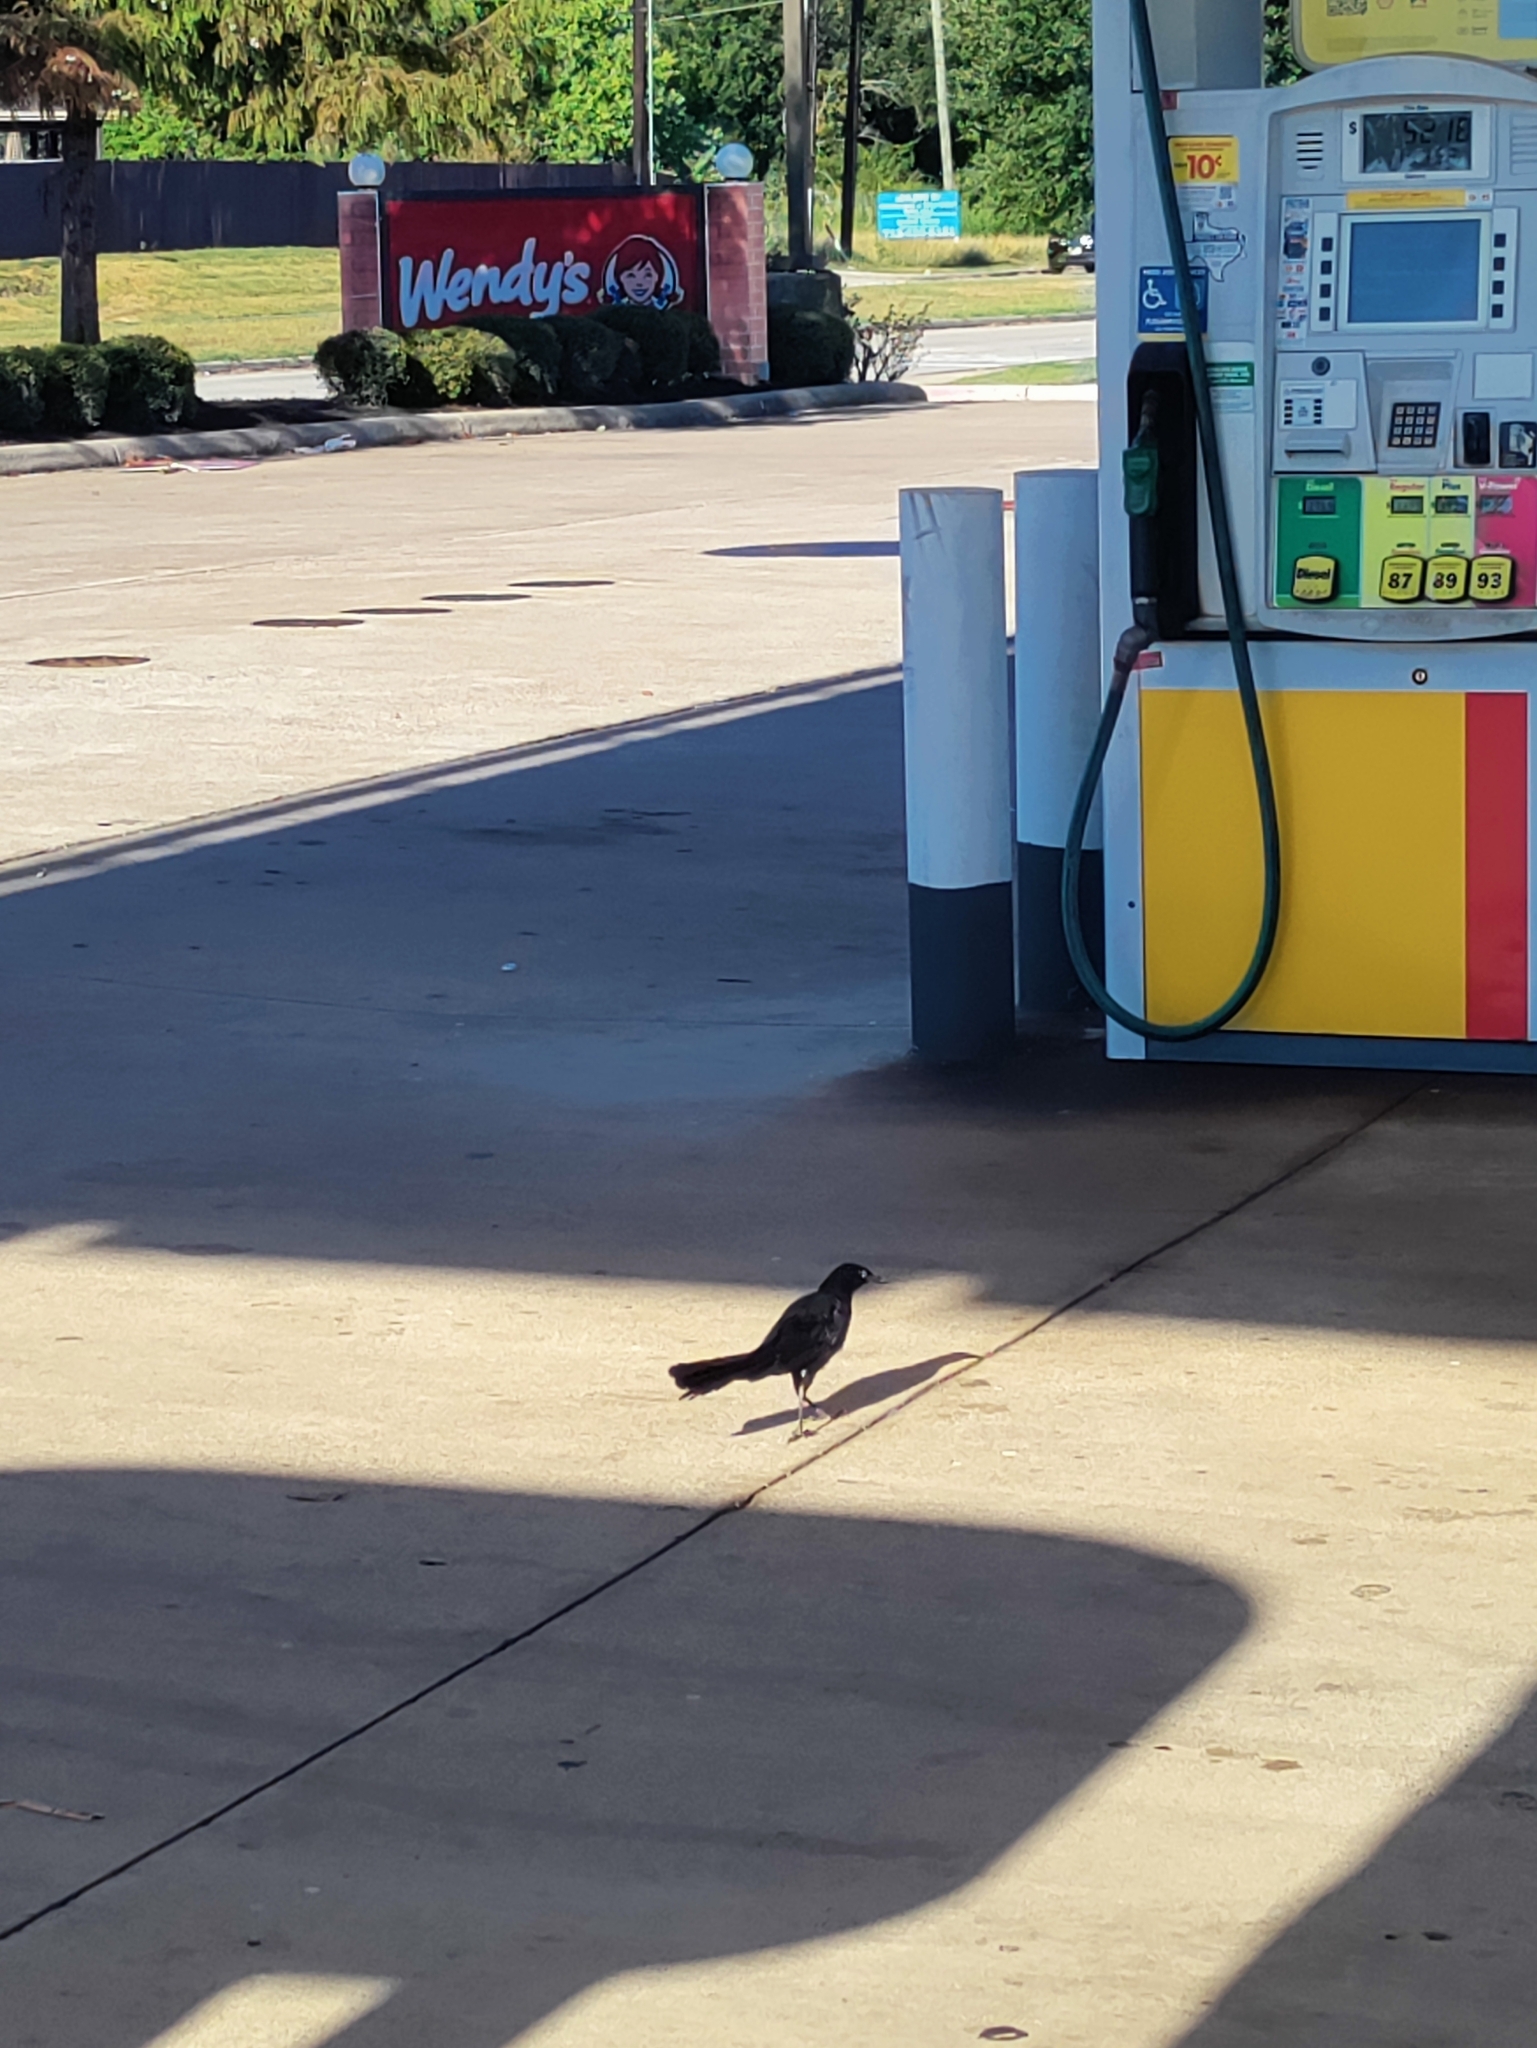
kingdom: Animalia
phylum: Chordata
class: Aves
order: Passeriformes
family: Icteridae
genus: Quiscalus
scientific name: Quiscalus mexicanus
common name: Great-tailed grackle
